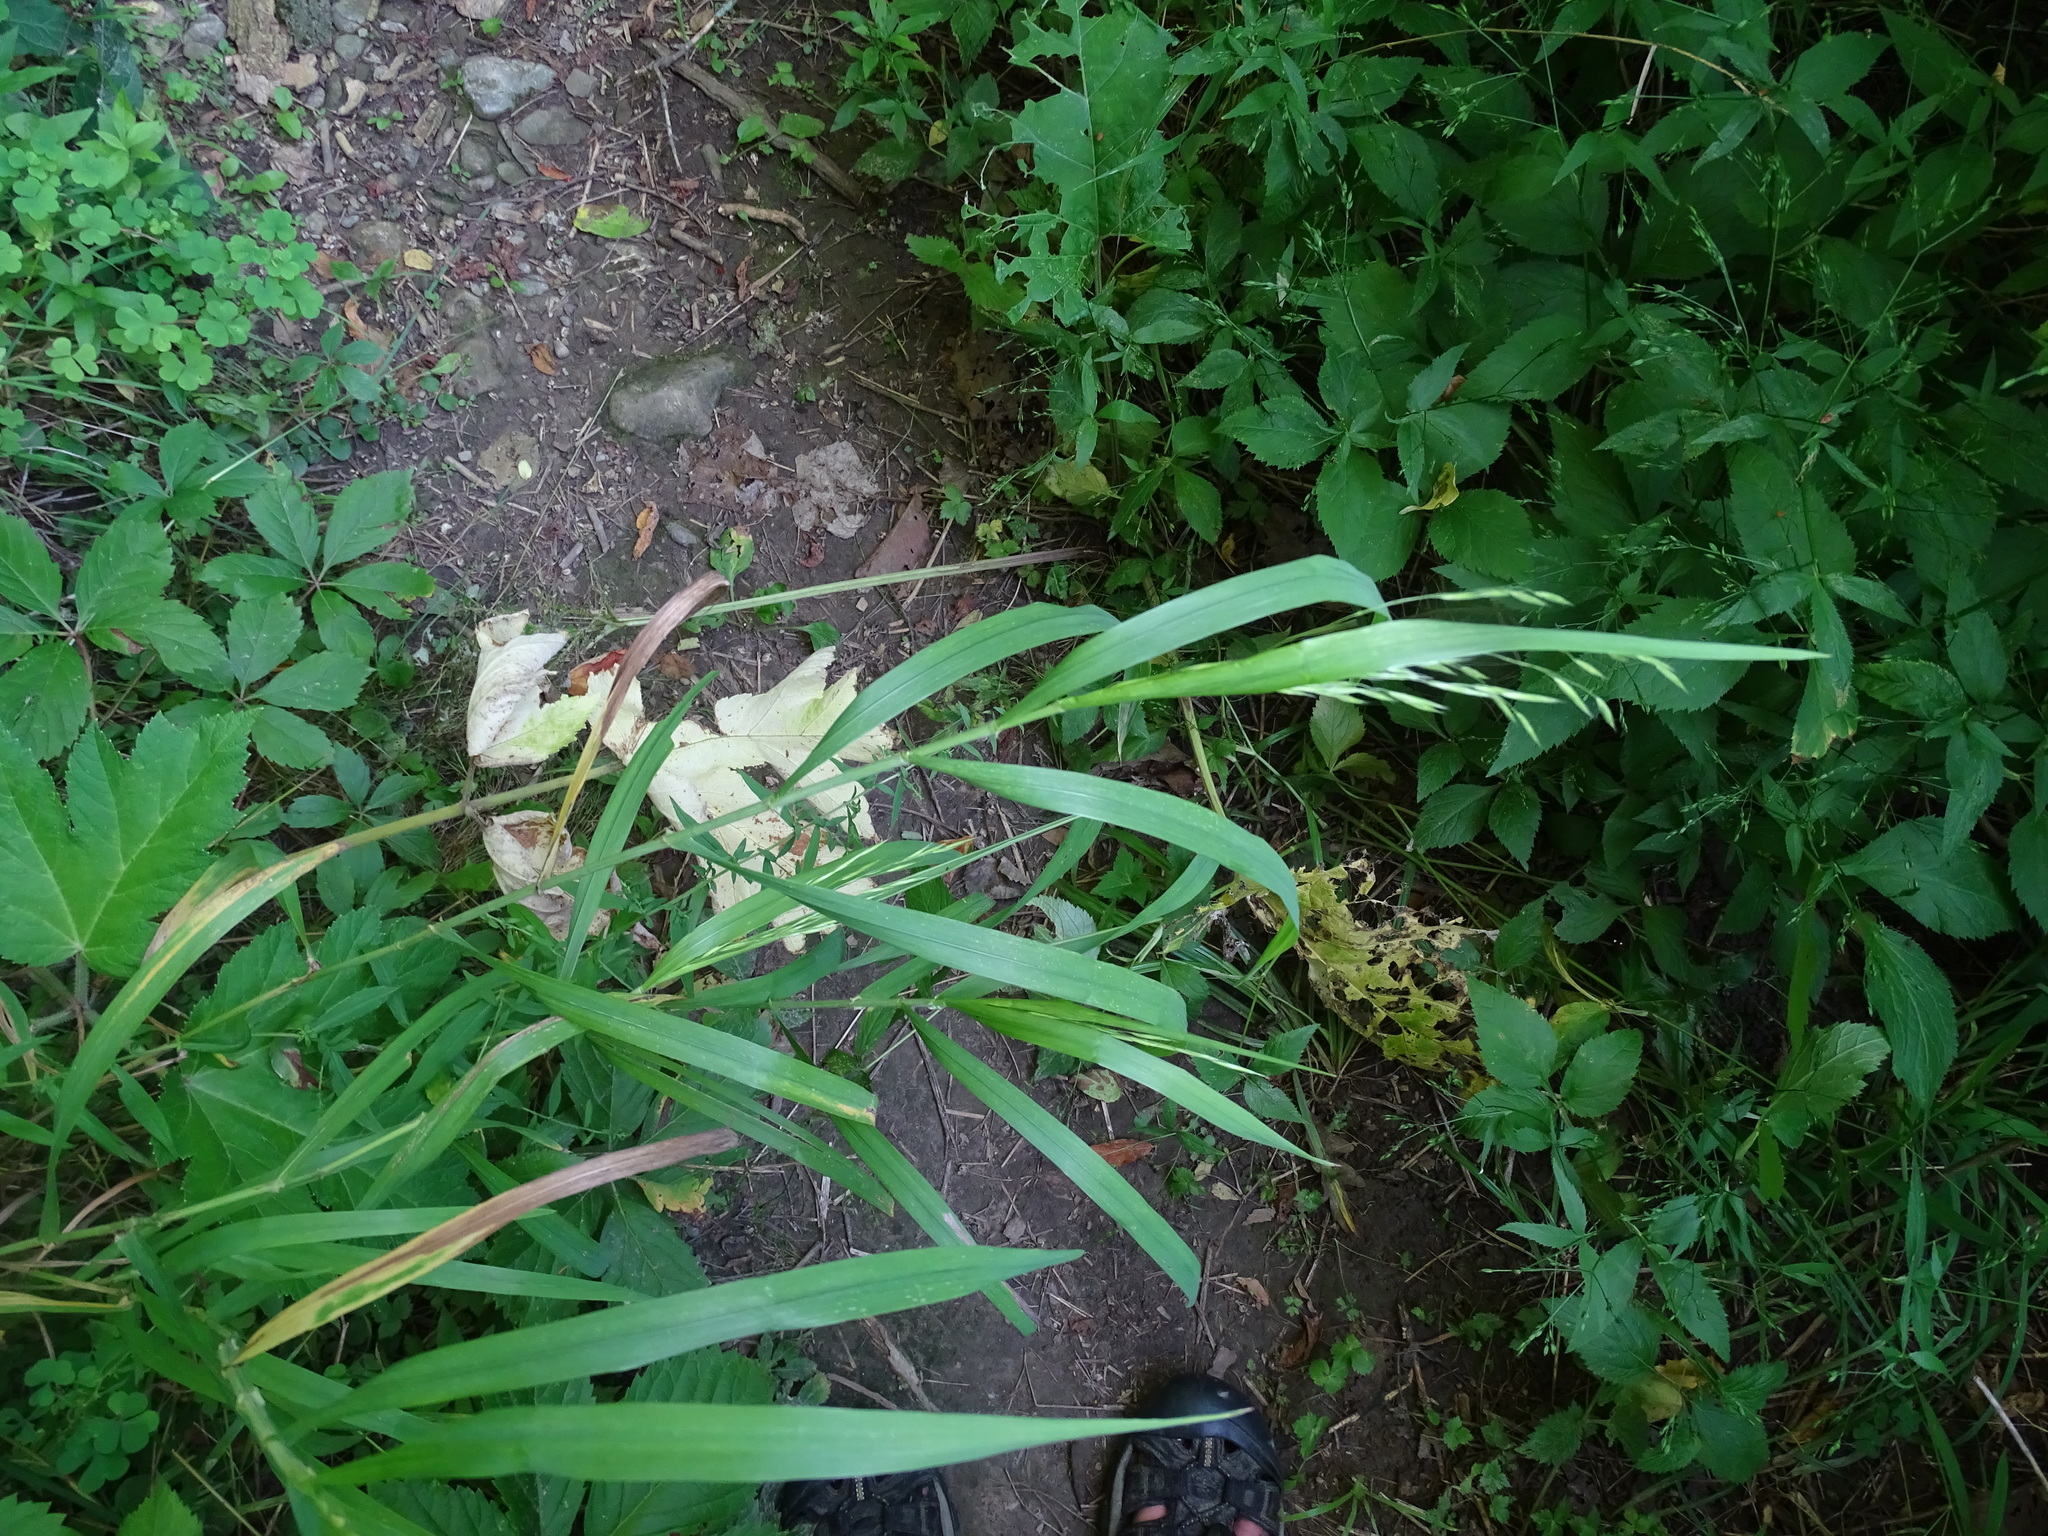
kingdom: Plantae
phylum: Tracheophyta
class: Liliopsida
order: Poales
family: Poaceae
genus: Bromus
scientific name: Bromus latiglumis
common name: Broad-glumed brome
